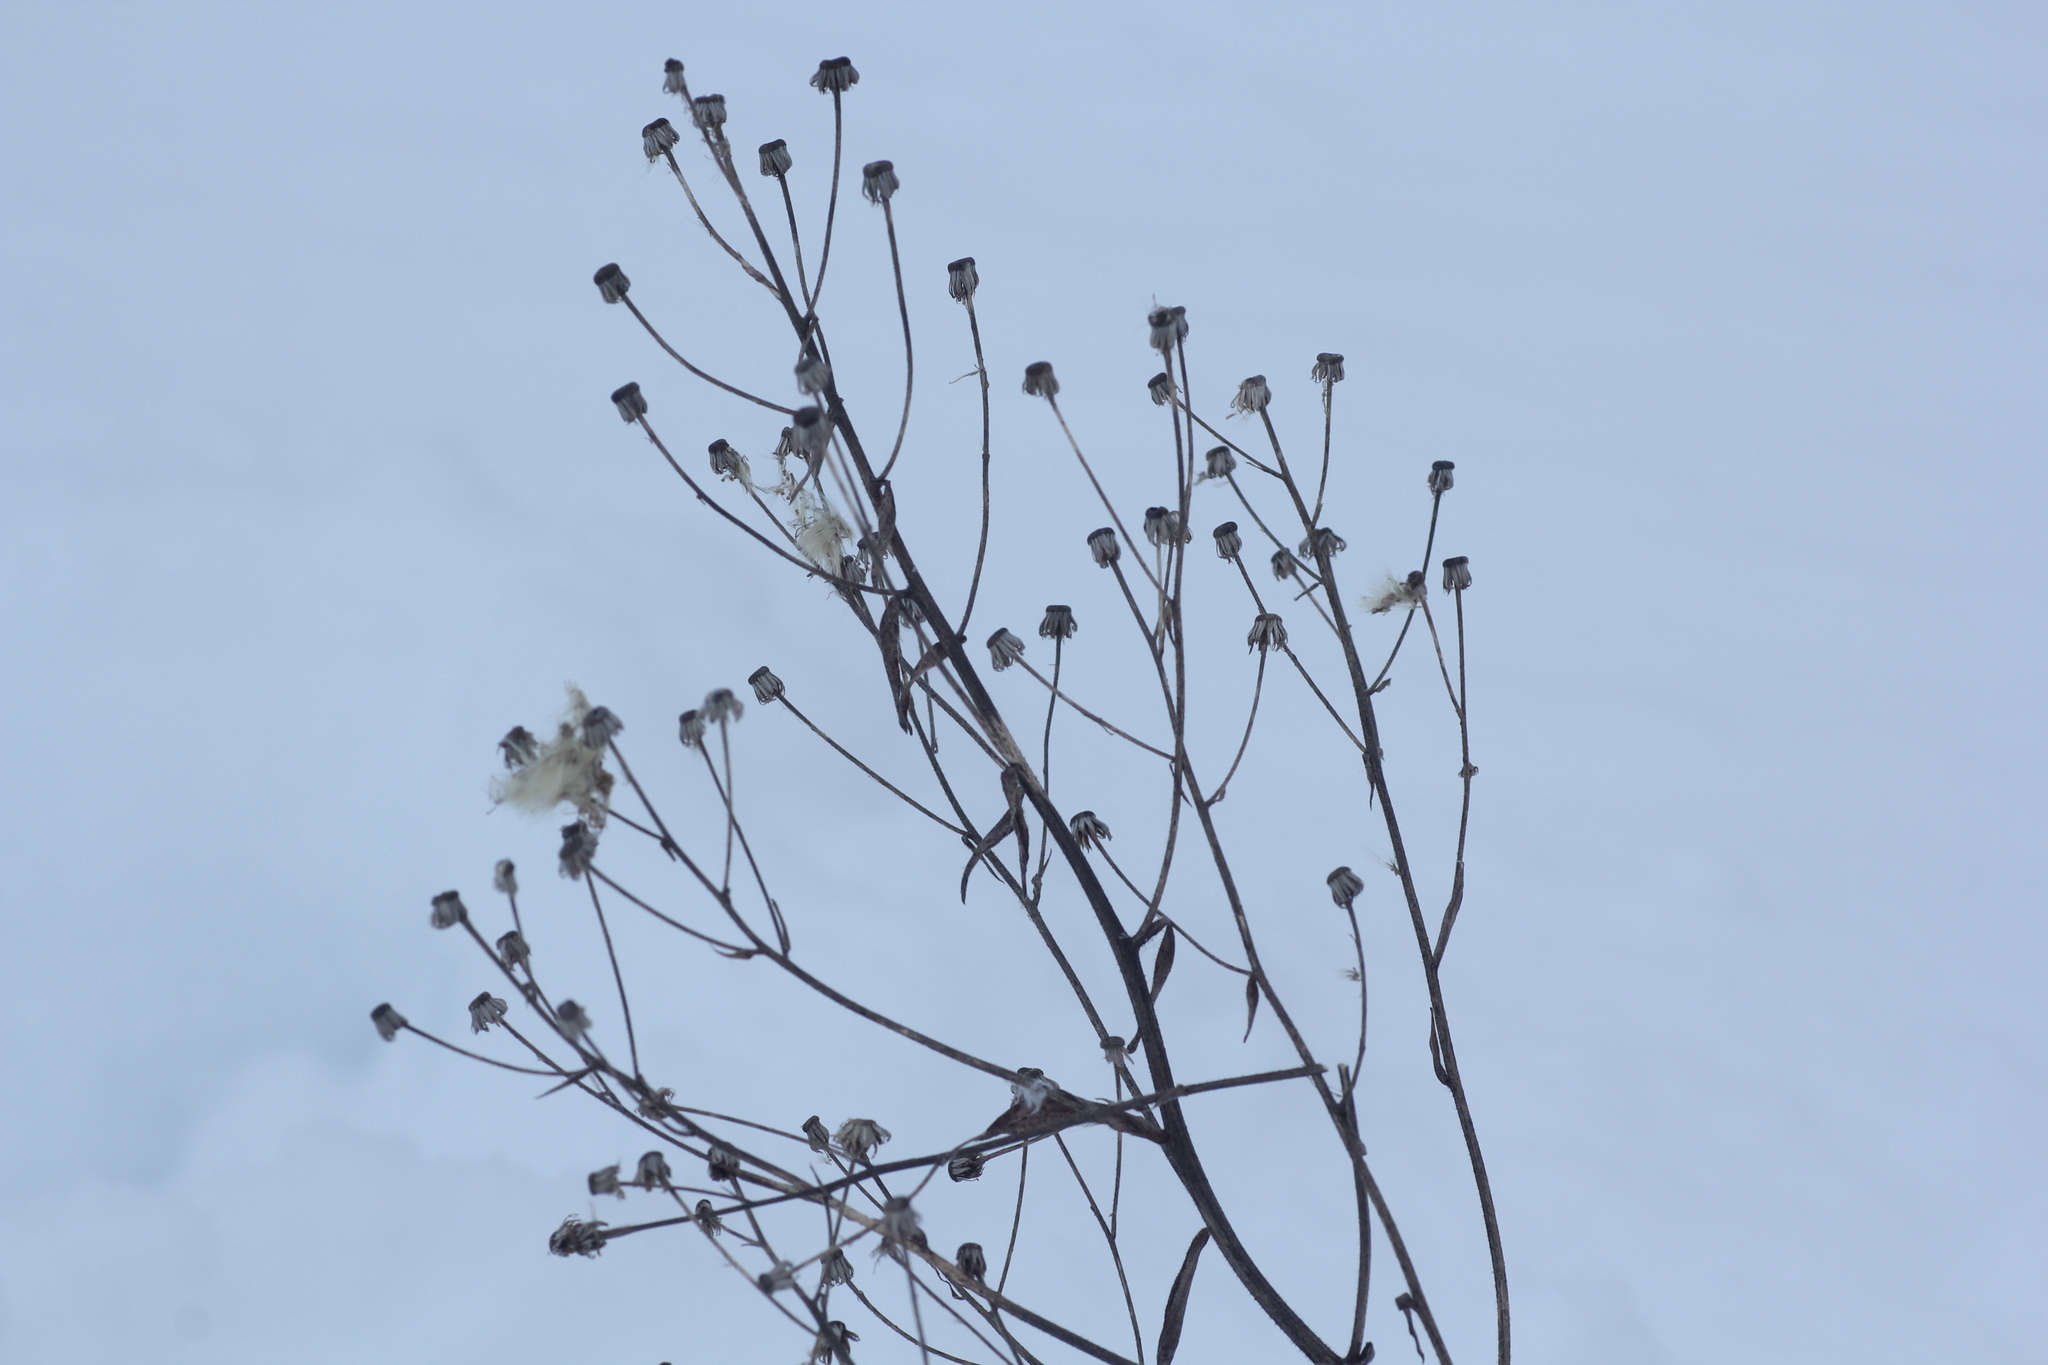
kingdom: Plantae
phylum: Tracheophyta
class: Magnoliopsida
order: Asterales
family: Asteraceae
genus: Erigeron
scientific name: Erigeron canadensis
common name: Canadian fleabane
